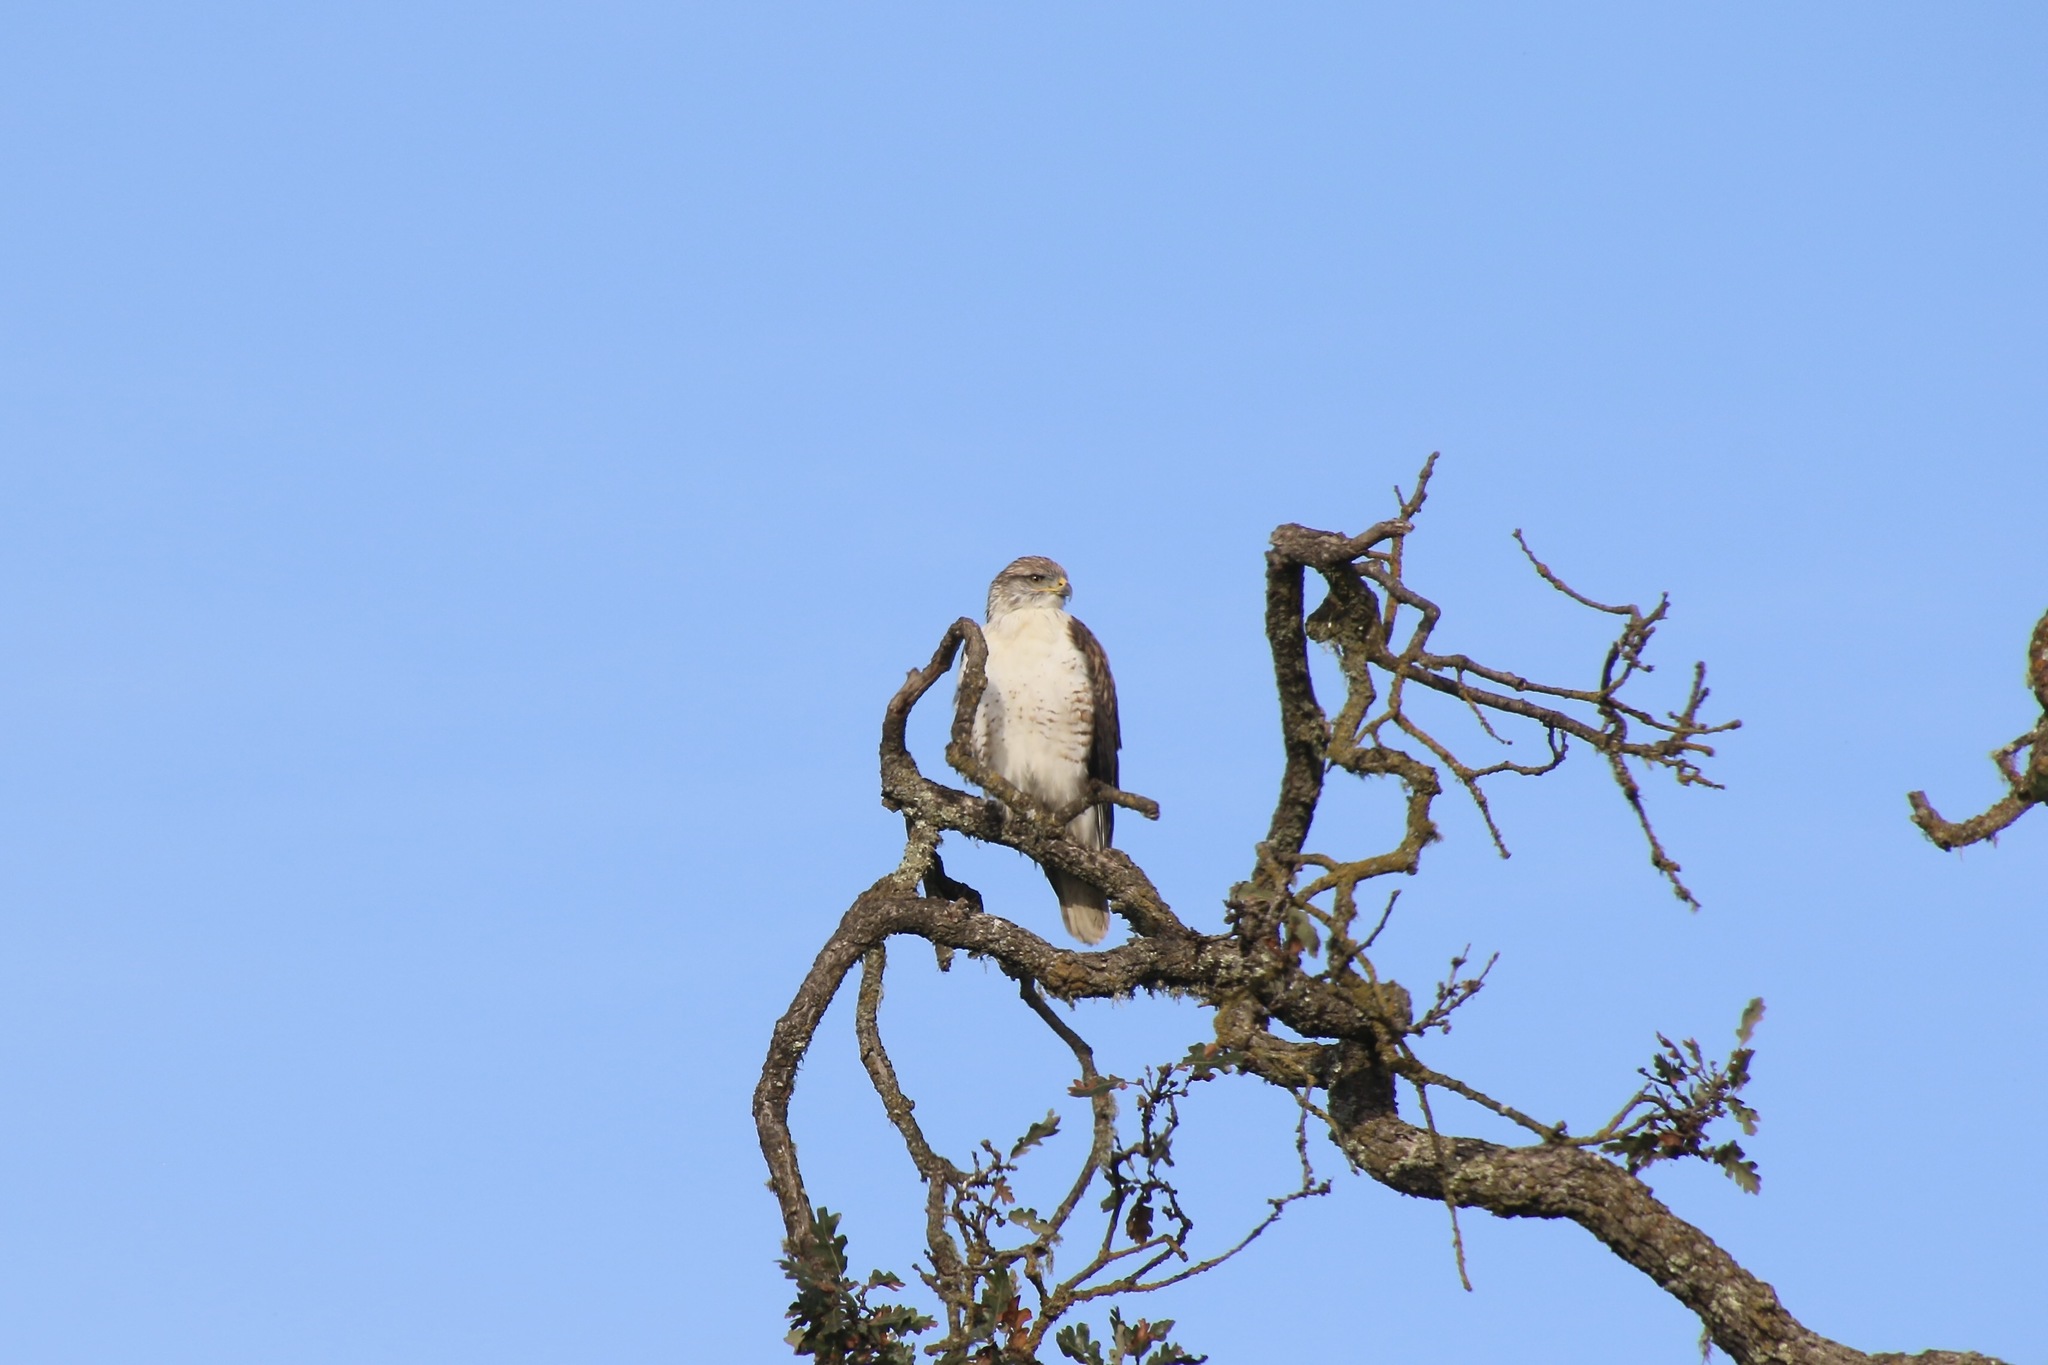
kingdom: Animalia
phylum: Chordata
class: Aves
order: Accipitriformes
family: Accipitridae
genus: Buteo
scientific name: Buteo regalis
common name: Ferruginous hawk
